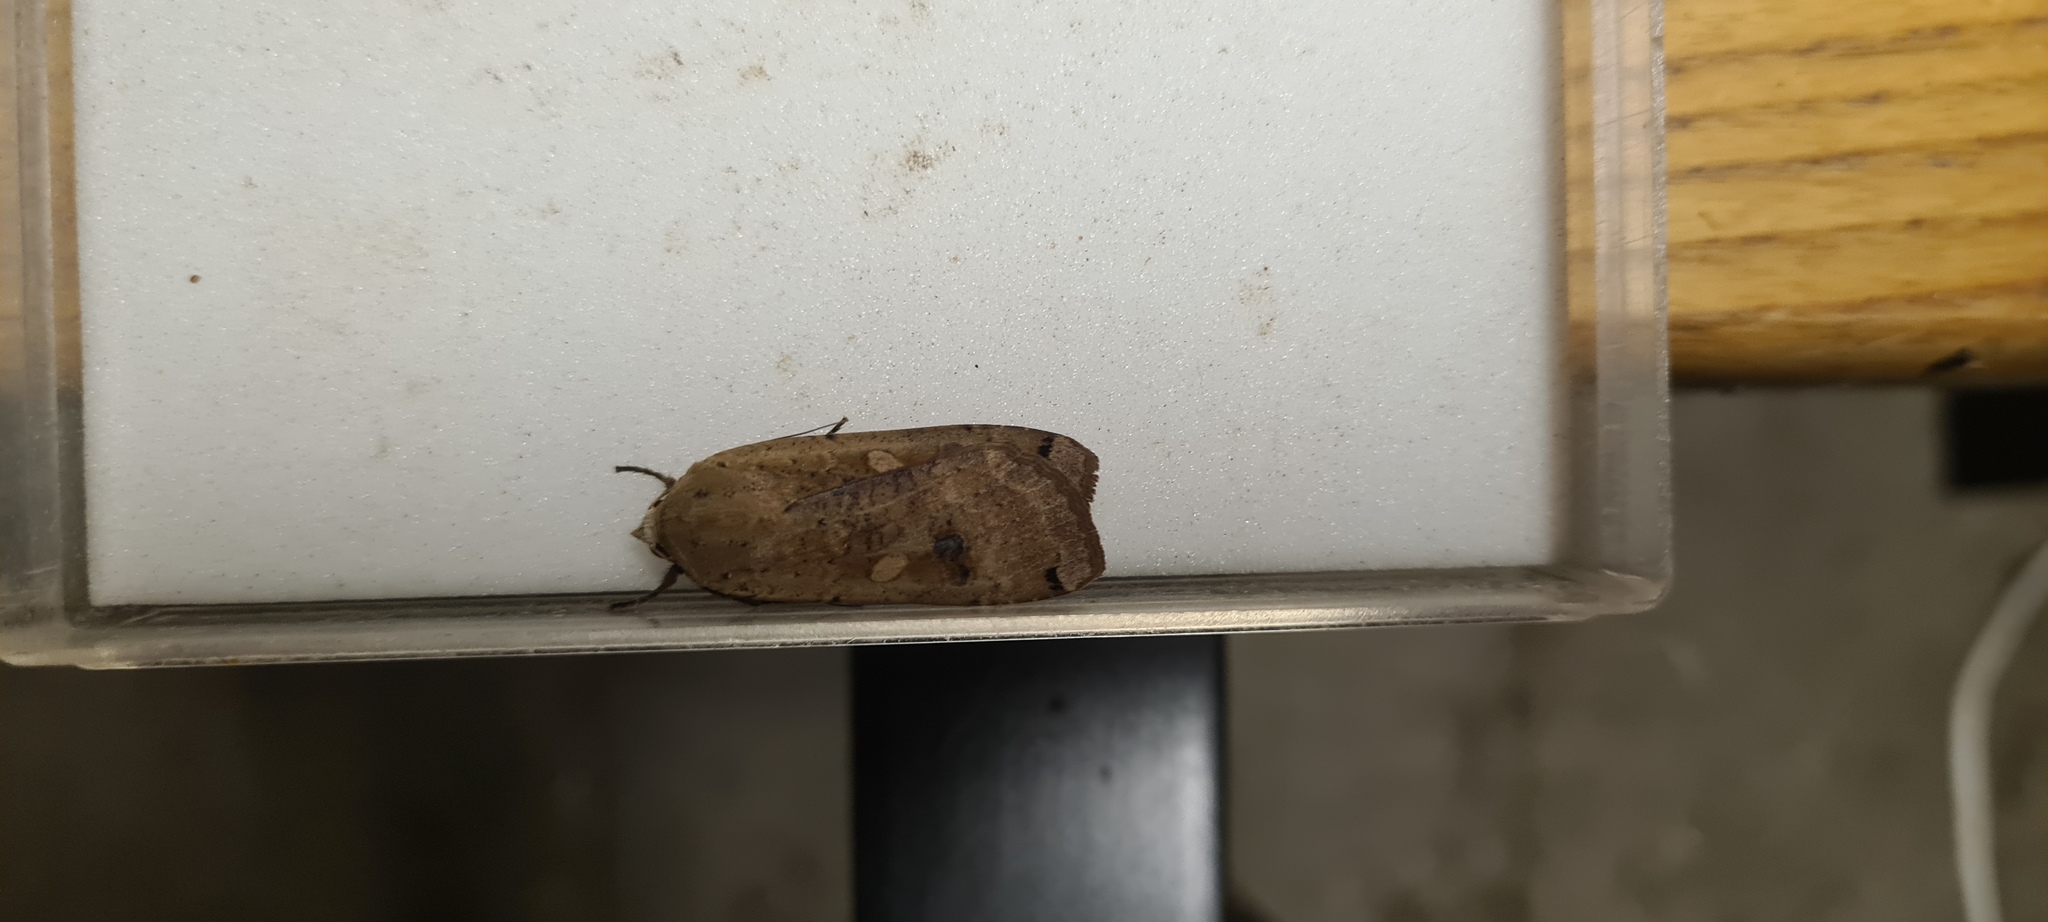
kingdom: Animalia
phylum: Arthropoda
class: Insecta
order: Lepidoptera
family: Noctuidae
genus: Noctua
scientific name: Noctua pronuba
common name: Large yellow underwing
